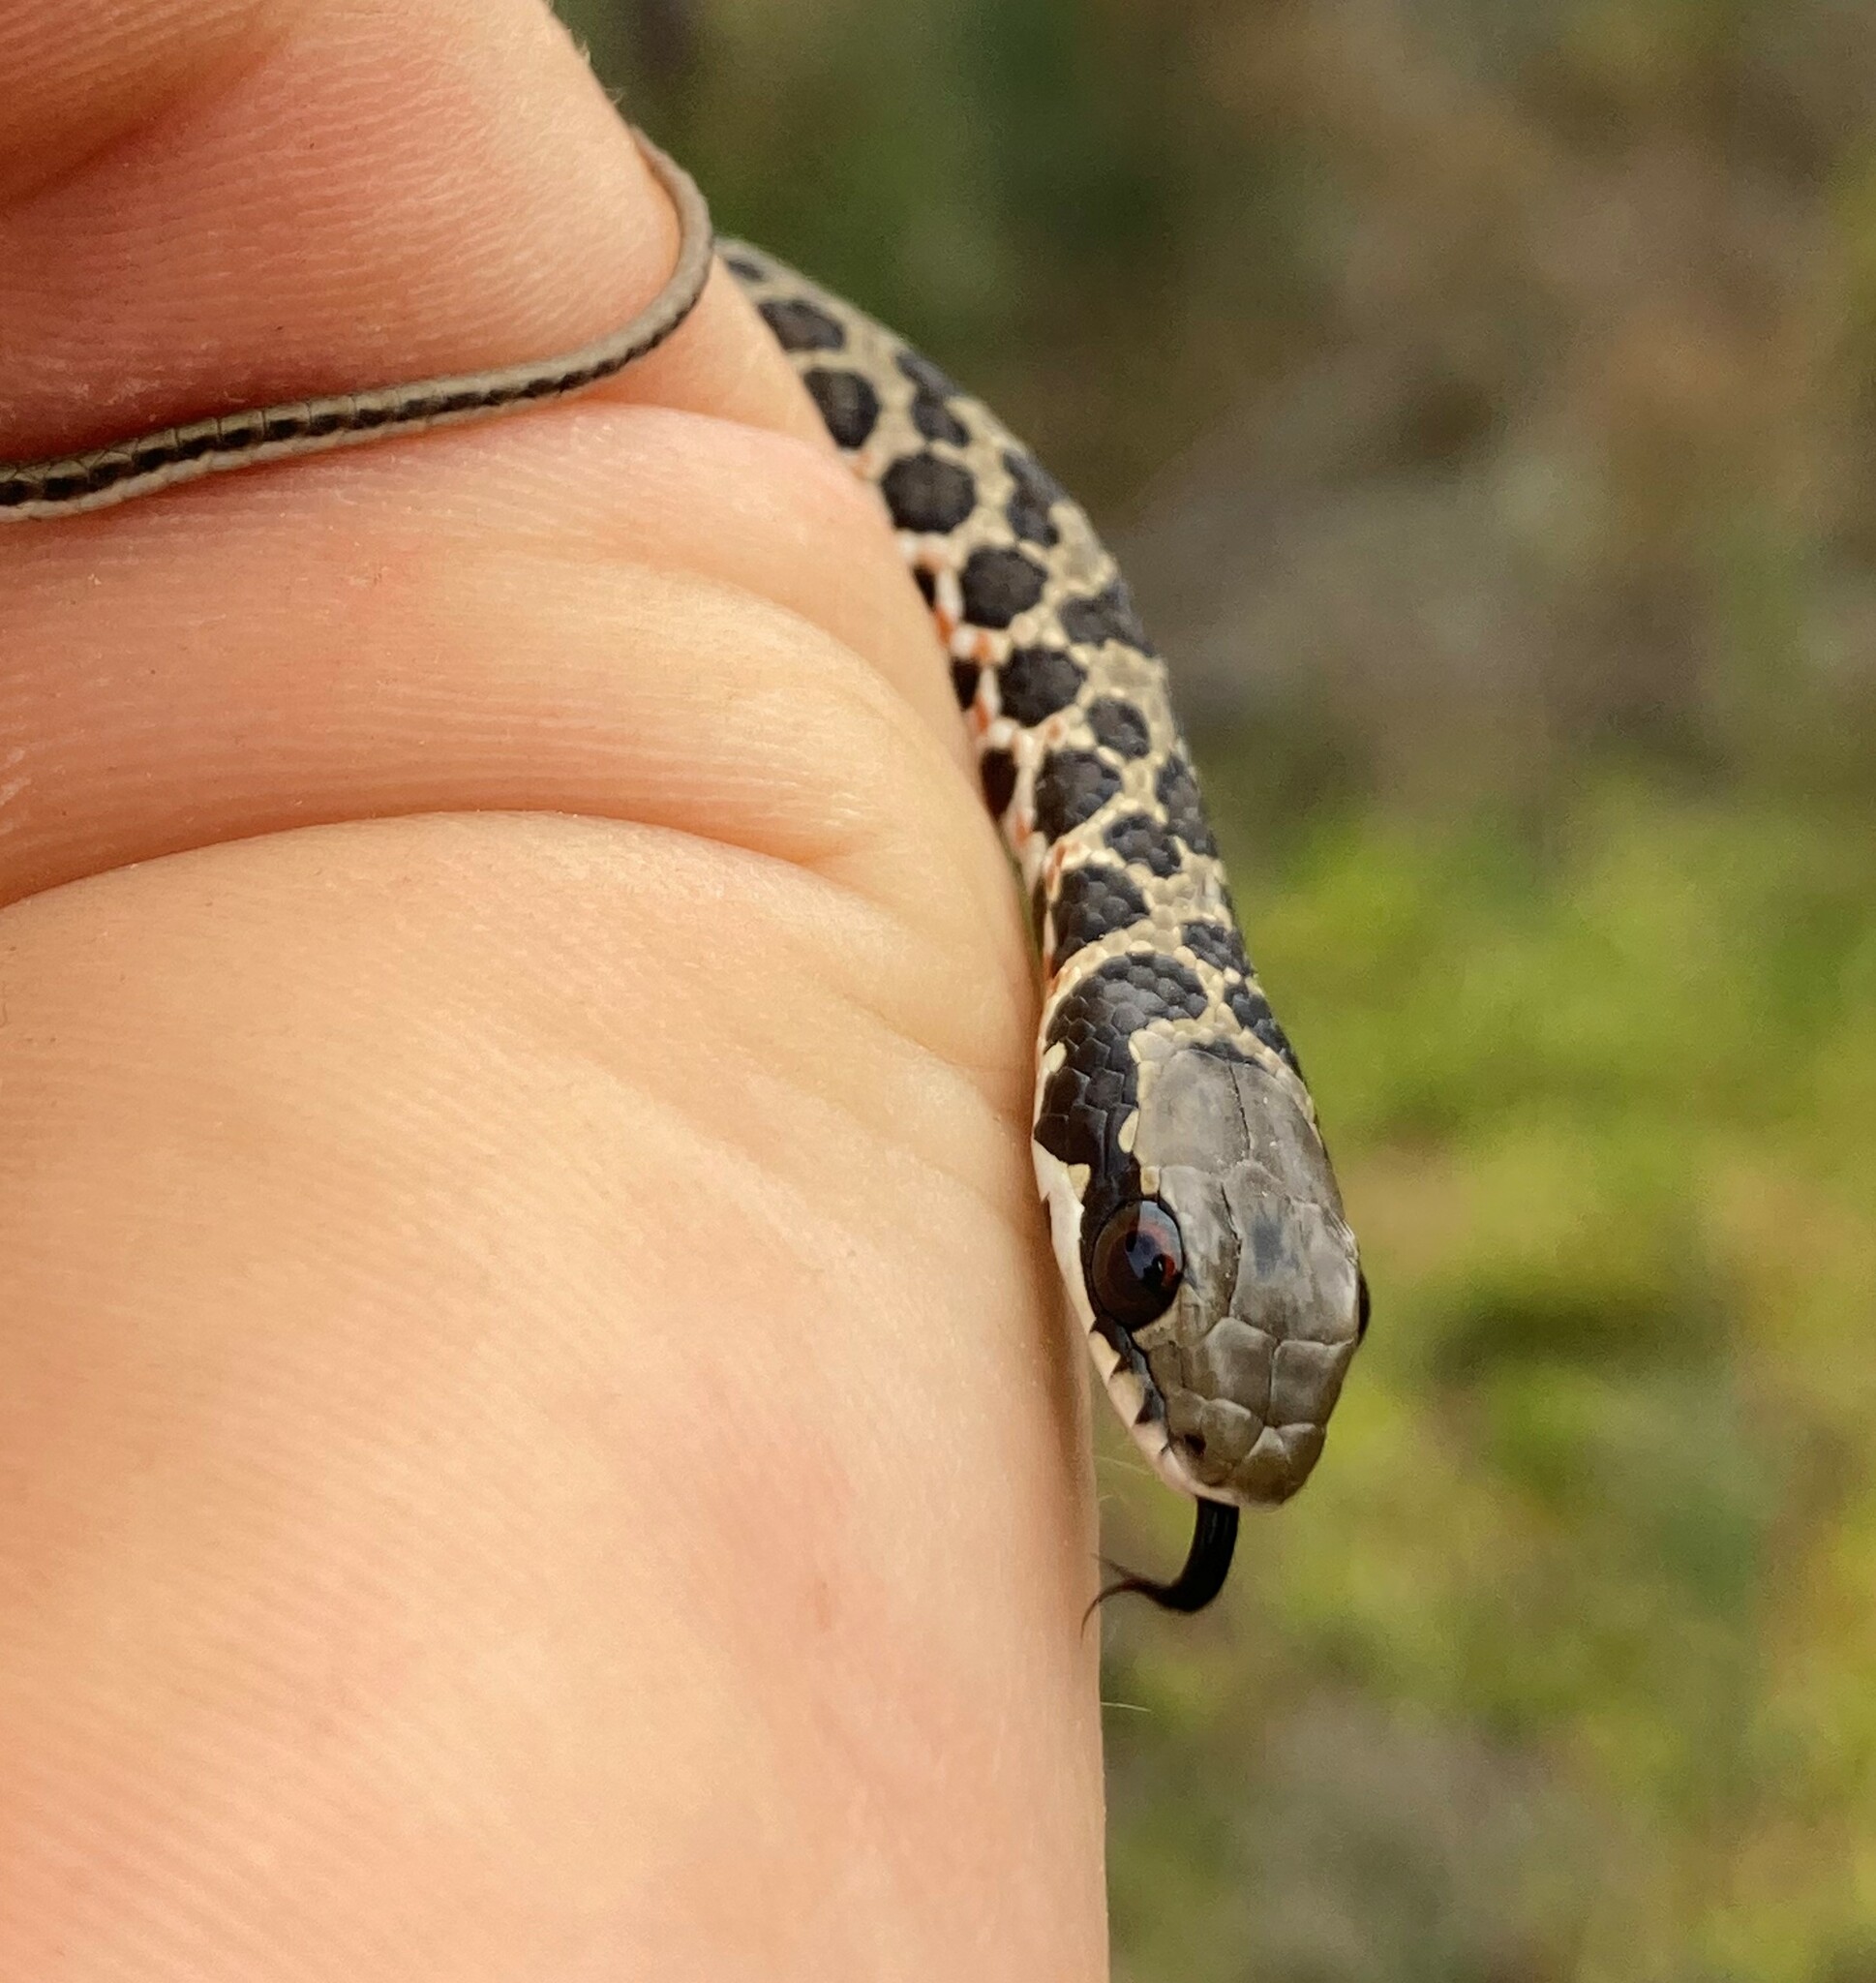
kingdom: Animalia
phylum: Chordata
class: Squamata
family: Psammophiidae
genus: Psammophylax
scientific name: Psammophylax rhombeatus
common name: Rhombic skaapsteker
